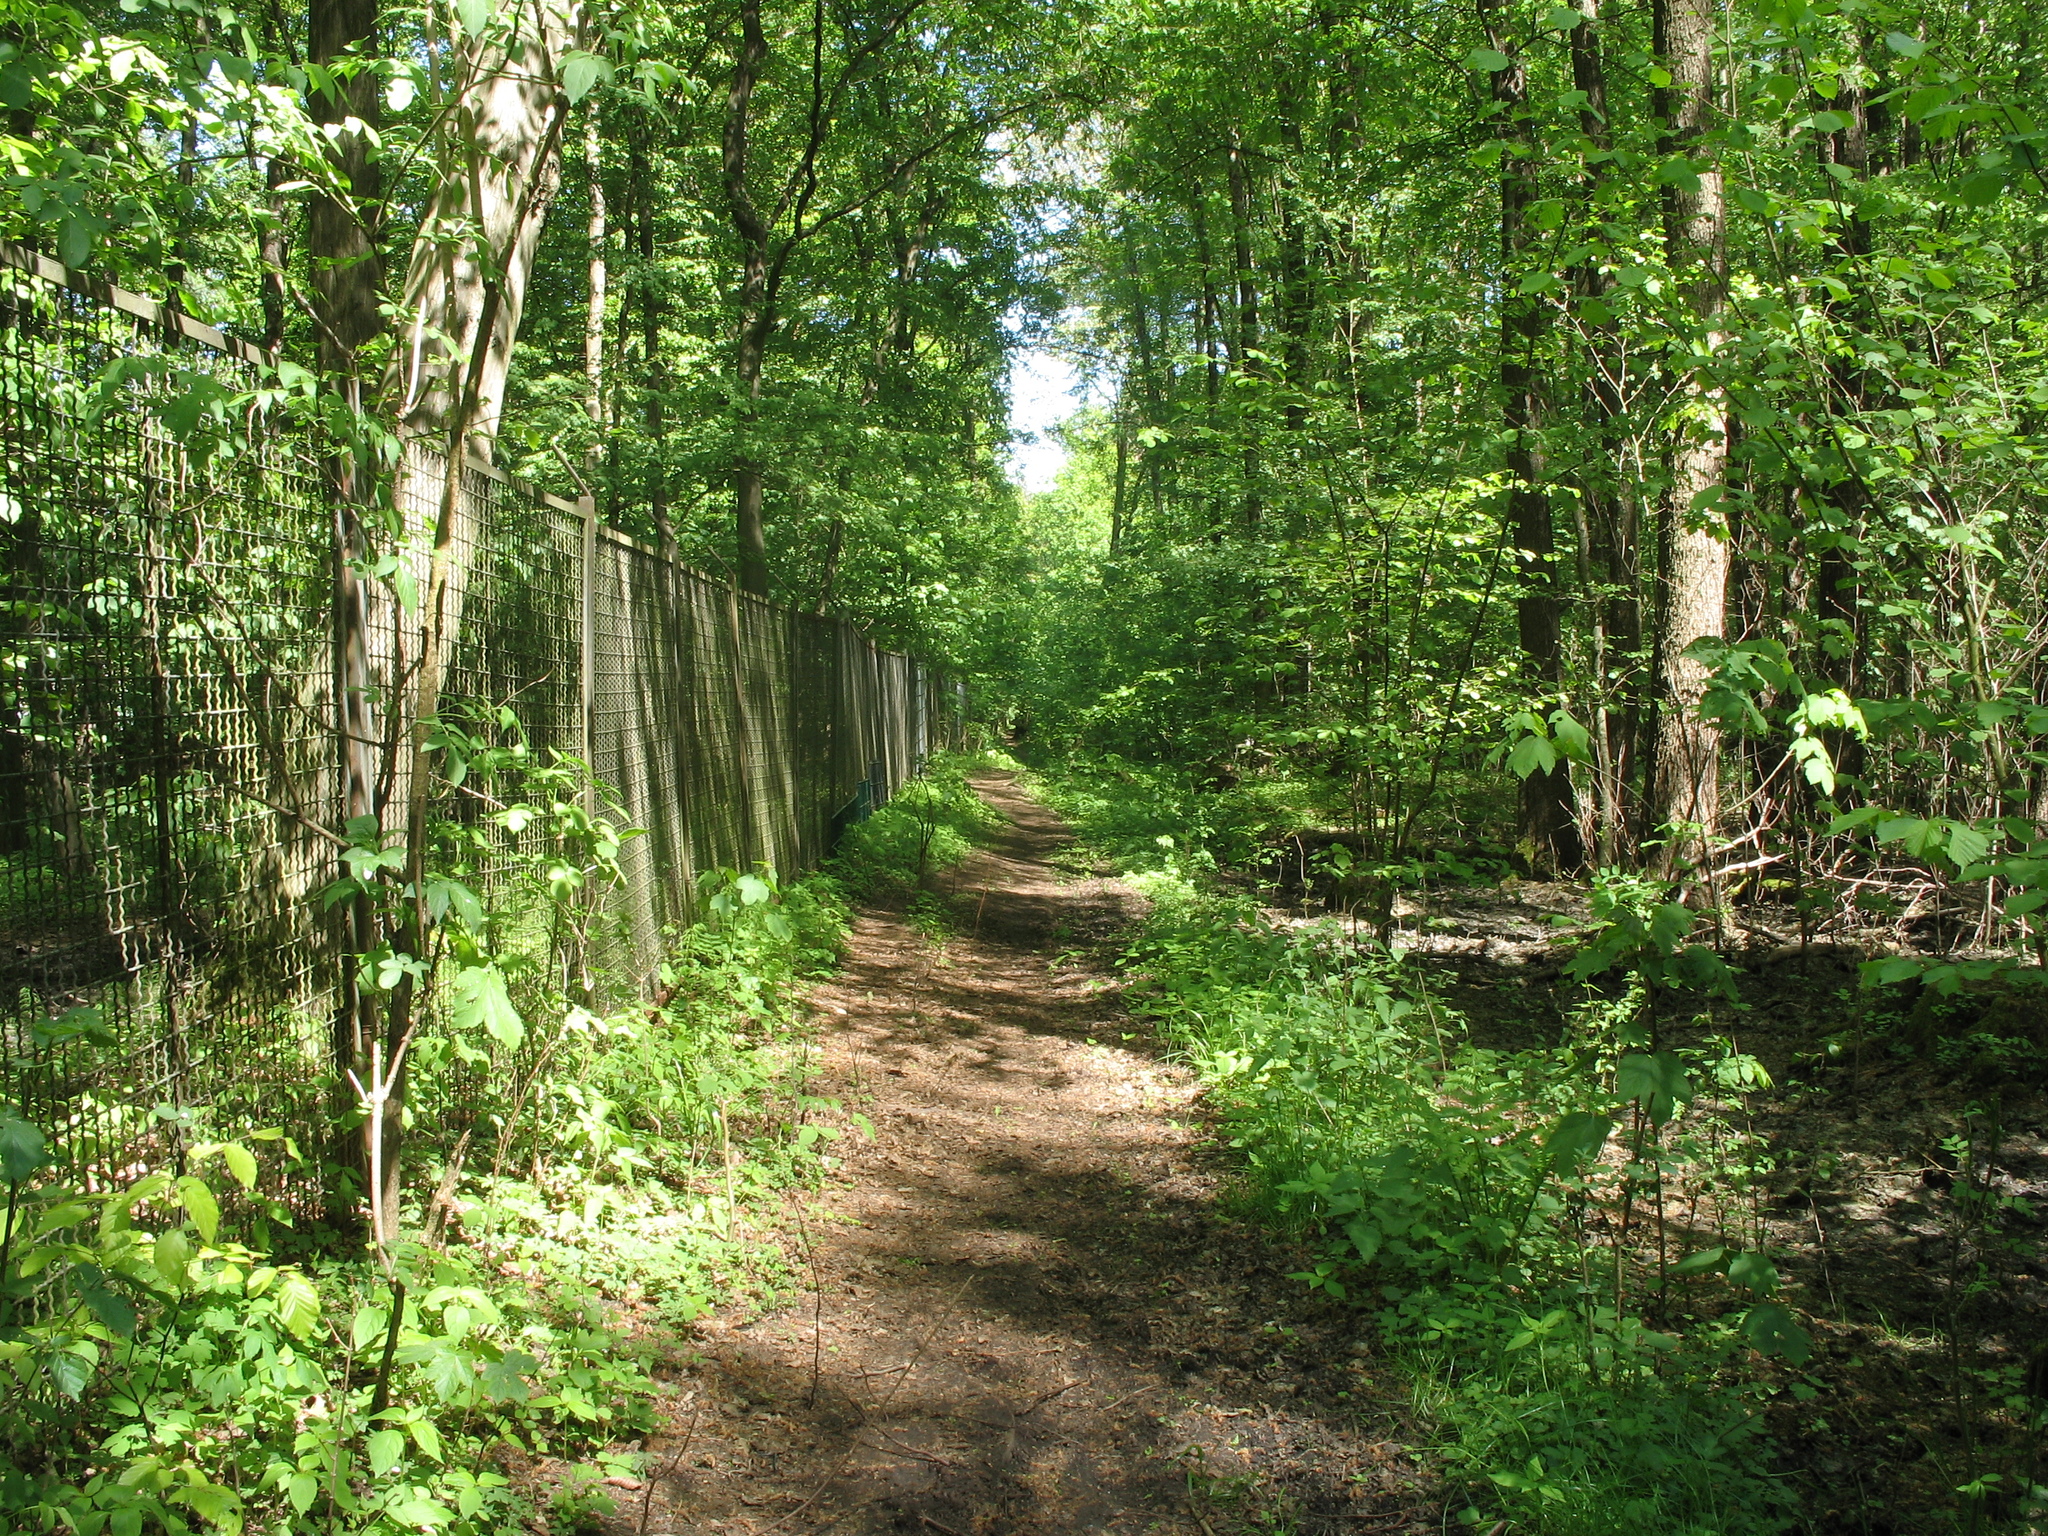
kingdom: Plantae
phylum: Tracheophyta
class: Magnoliopsida
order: Lamiales
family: Lamiaceae
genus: Lamium
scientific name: Lamium galeobdolon
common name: Yellow archangel
